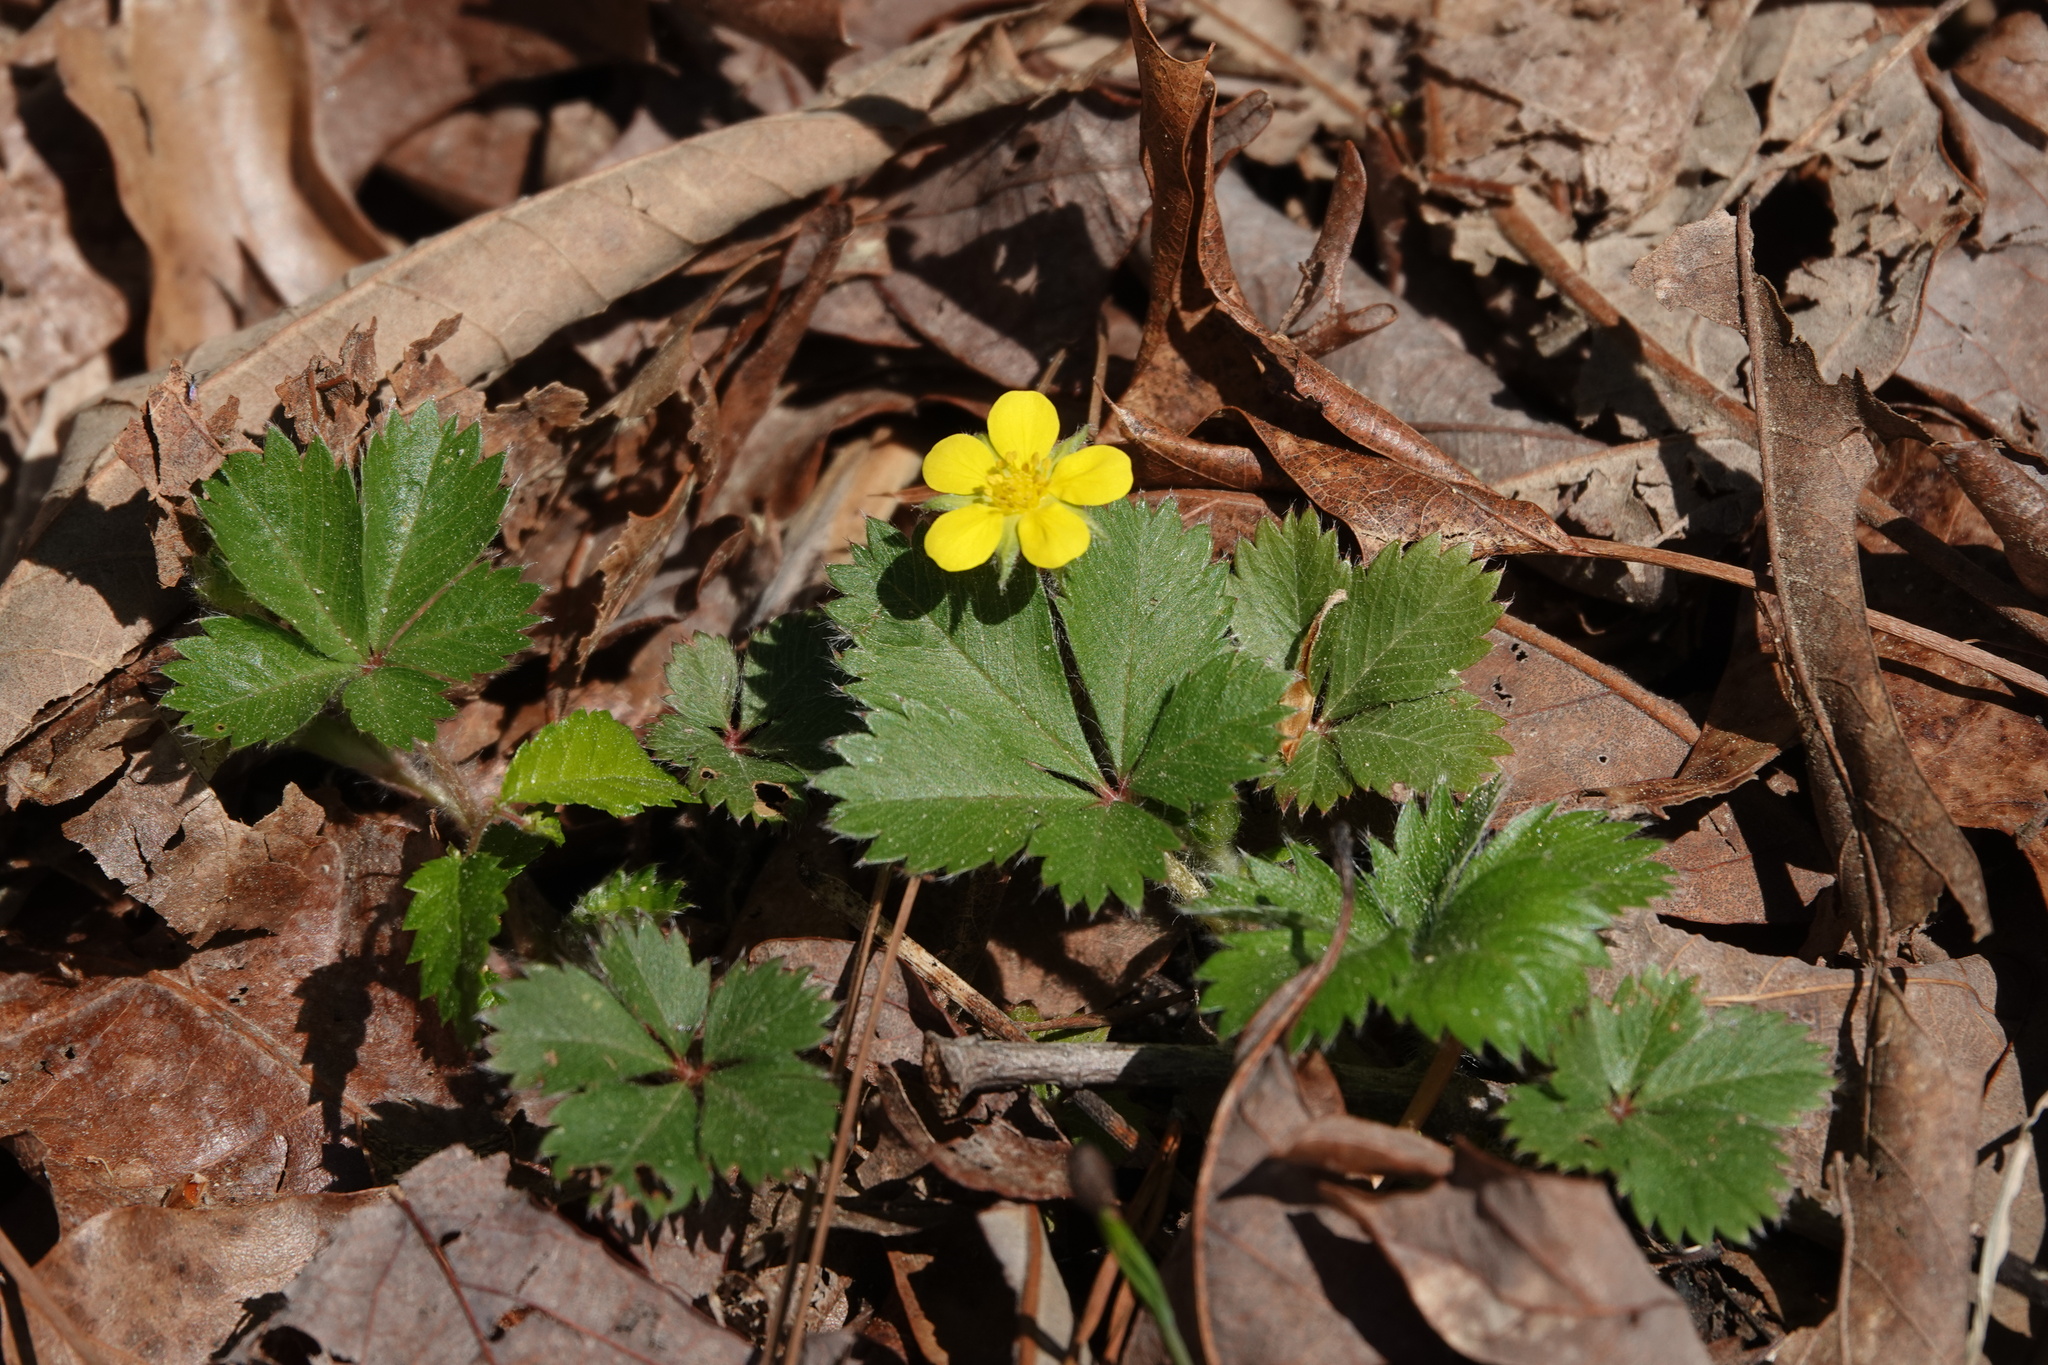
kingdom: Plantae
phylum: Tracheophyta
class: Magnoliopsida
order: Rosales
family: Rosaceae
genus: Potentilla
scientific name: Potentilla canadensis
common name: Canada cinquefoil
